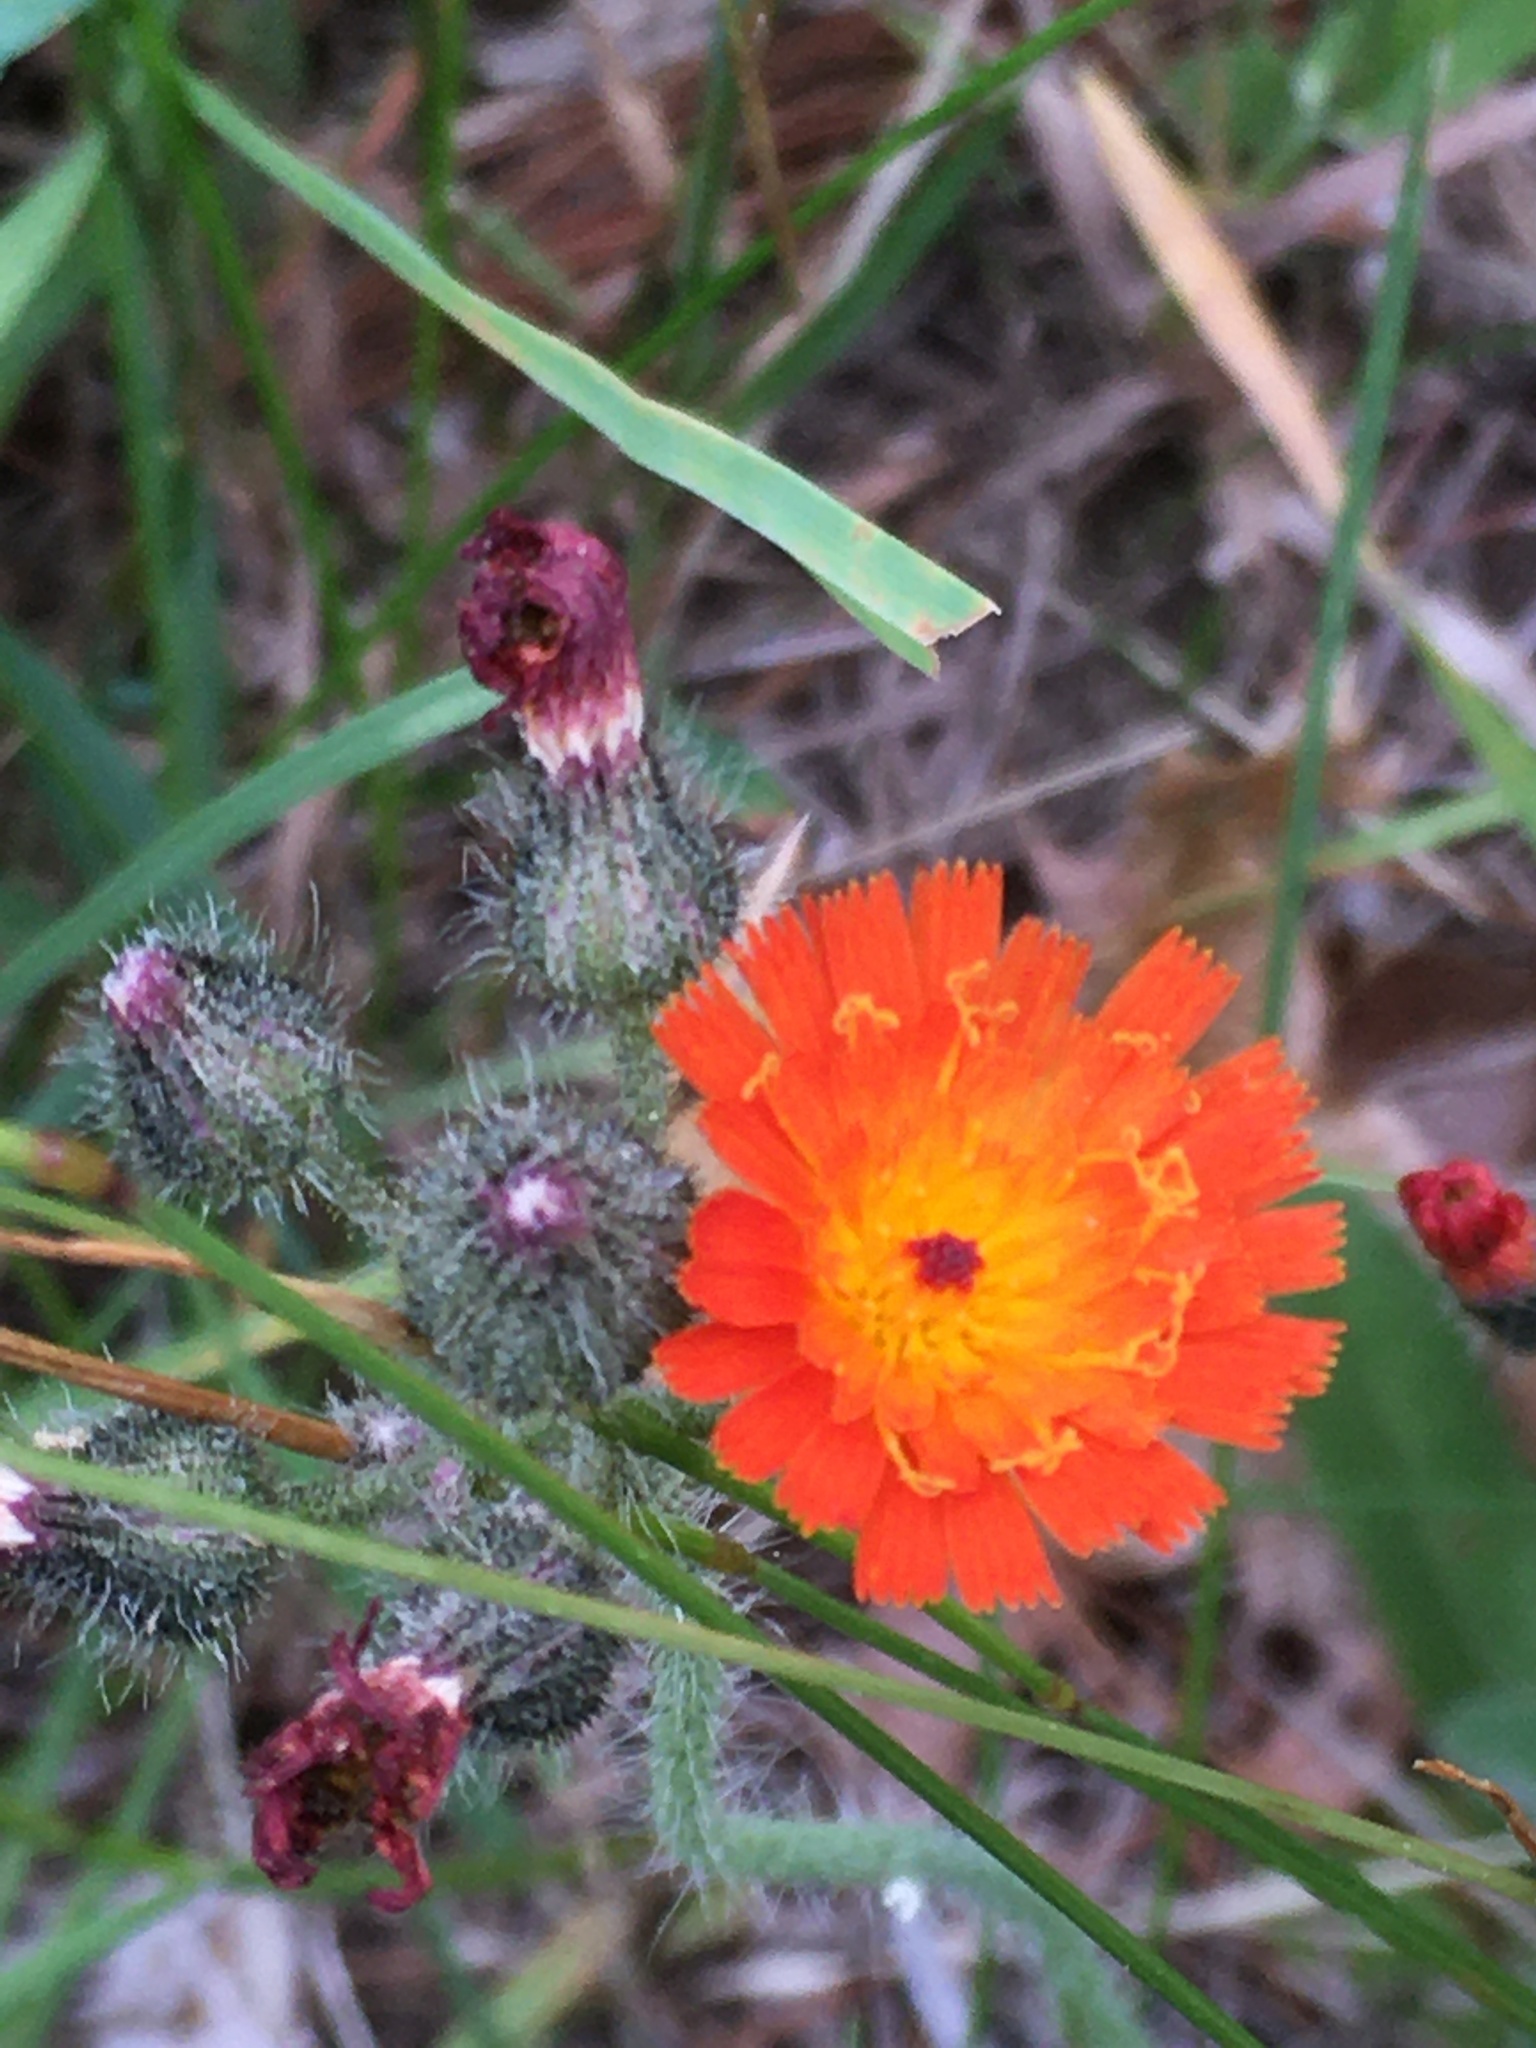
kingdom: Plantae
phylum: Tracheophyta
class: Magnoliopsida
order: Asterales
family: Asteraceae
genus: Pilosella
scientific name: Pilosella aurantiaca
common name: Fox-and-cubs
